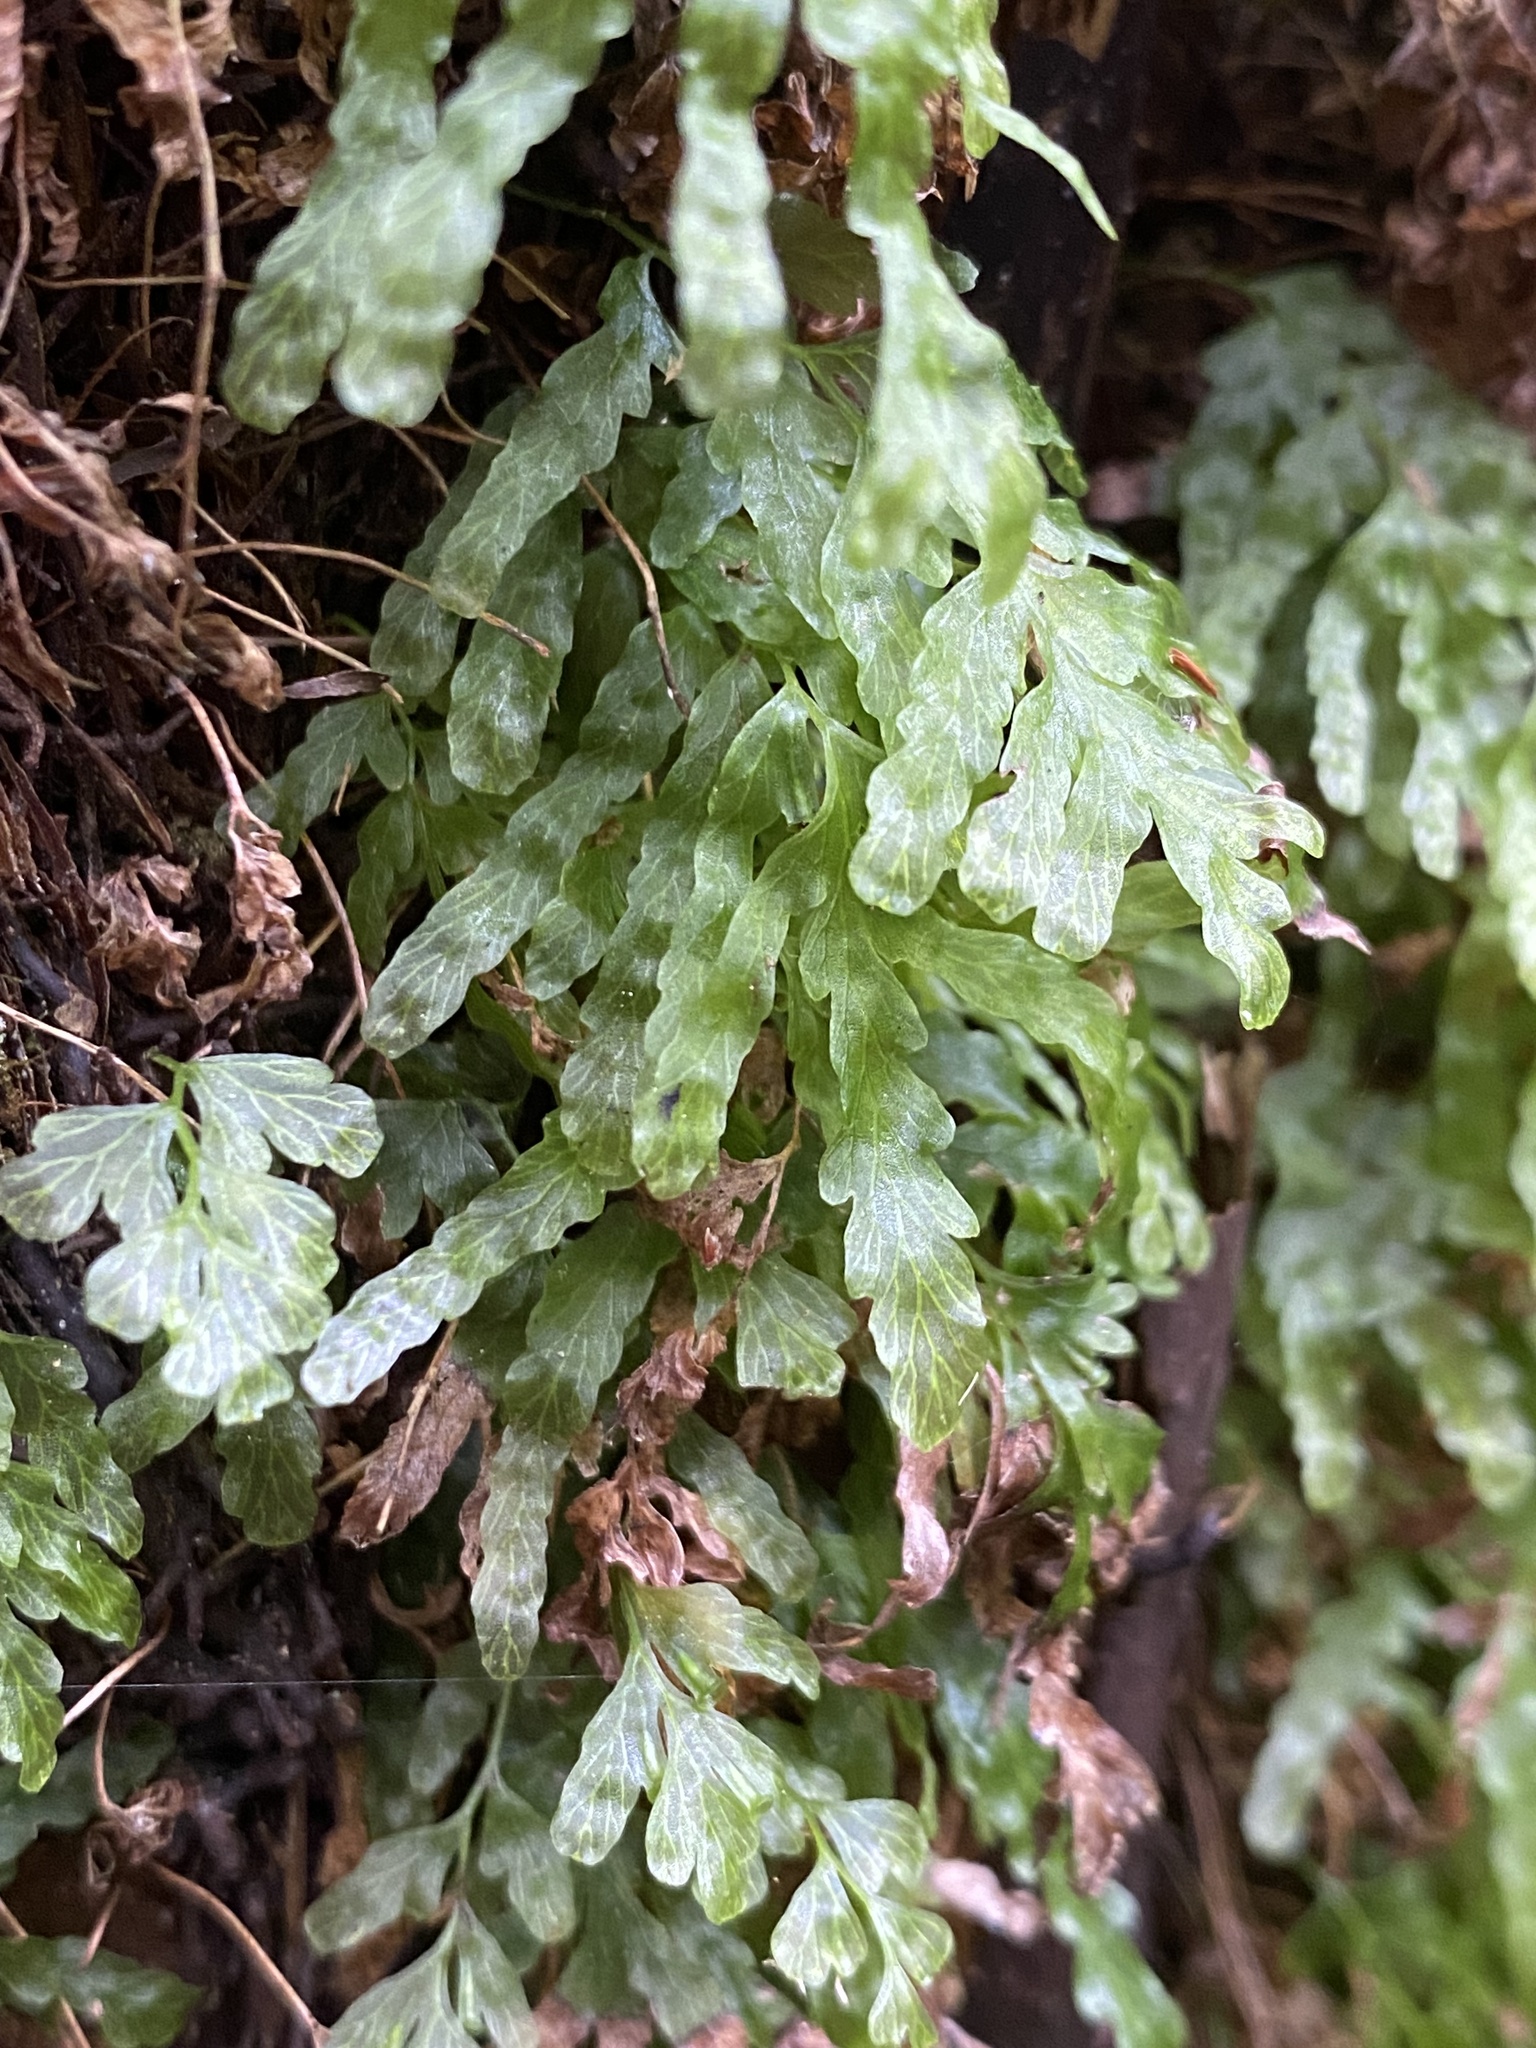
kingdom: Plantae
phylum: Tracheophyta
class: Polypodiopsida
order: Hymenophyllales
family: Hymenophyllaceae
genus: Polyphlebium
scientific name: Polyphlebium venosum
